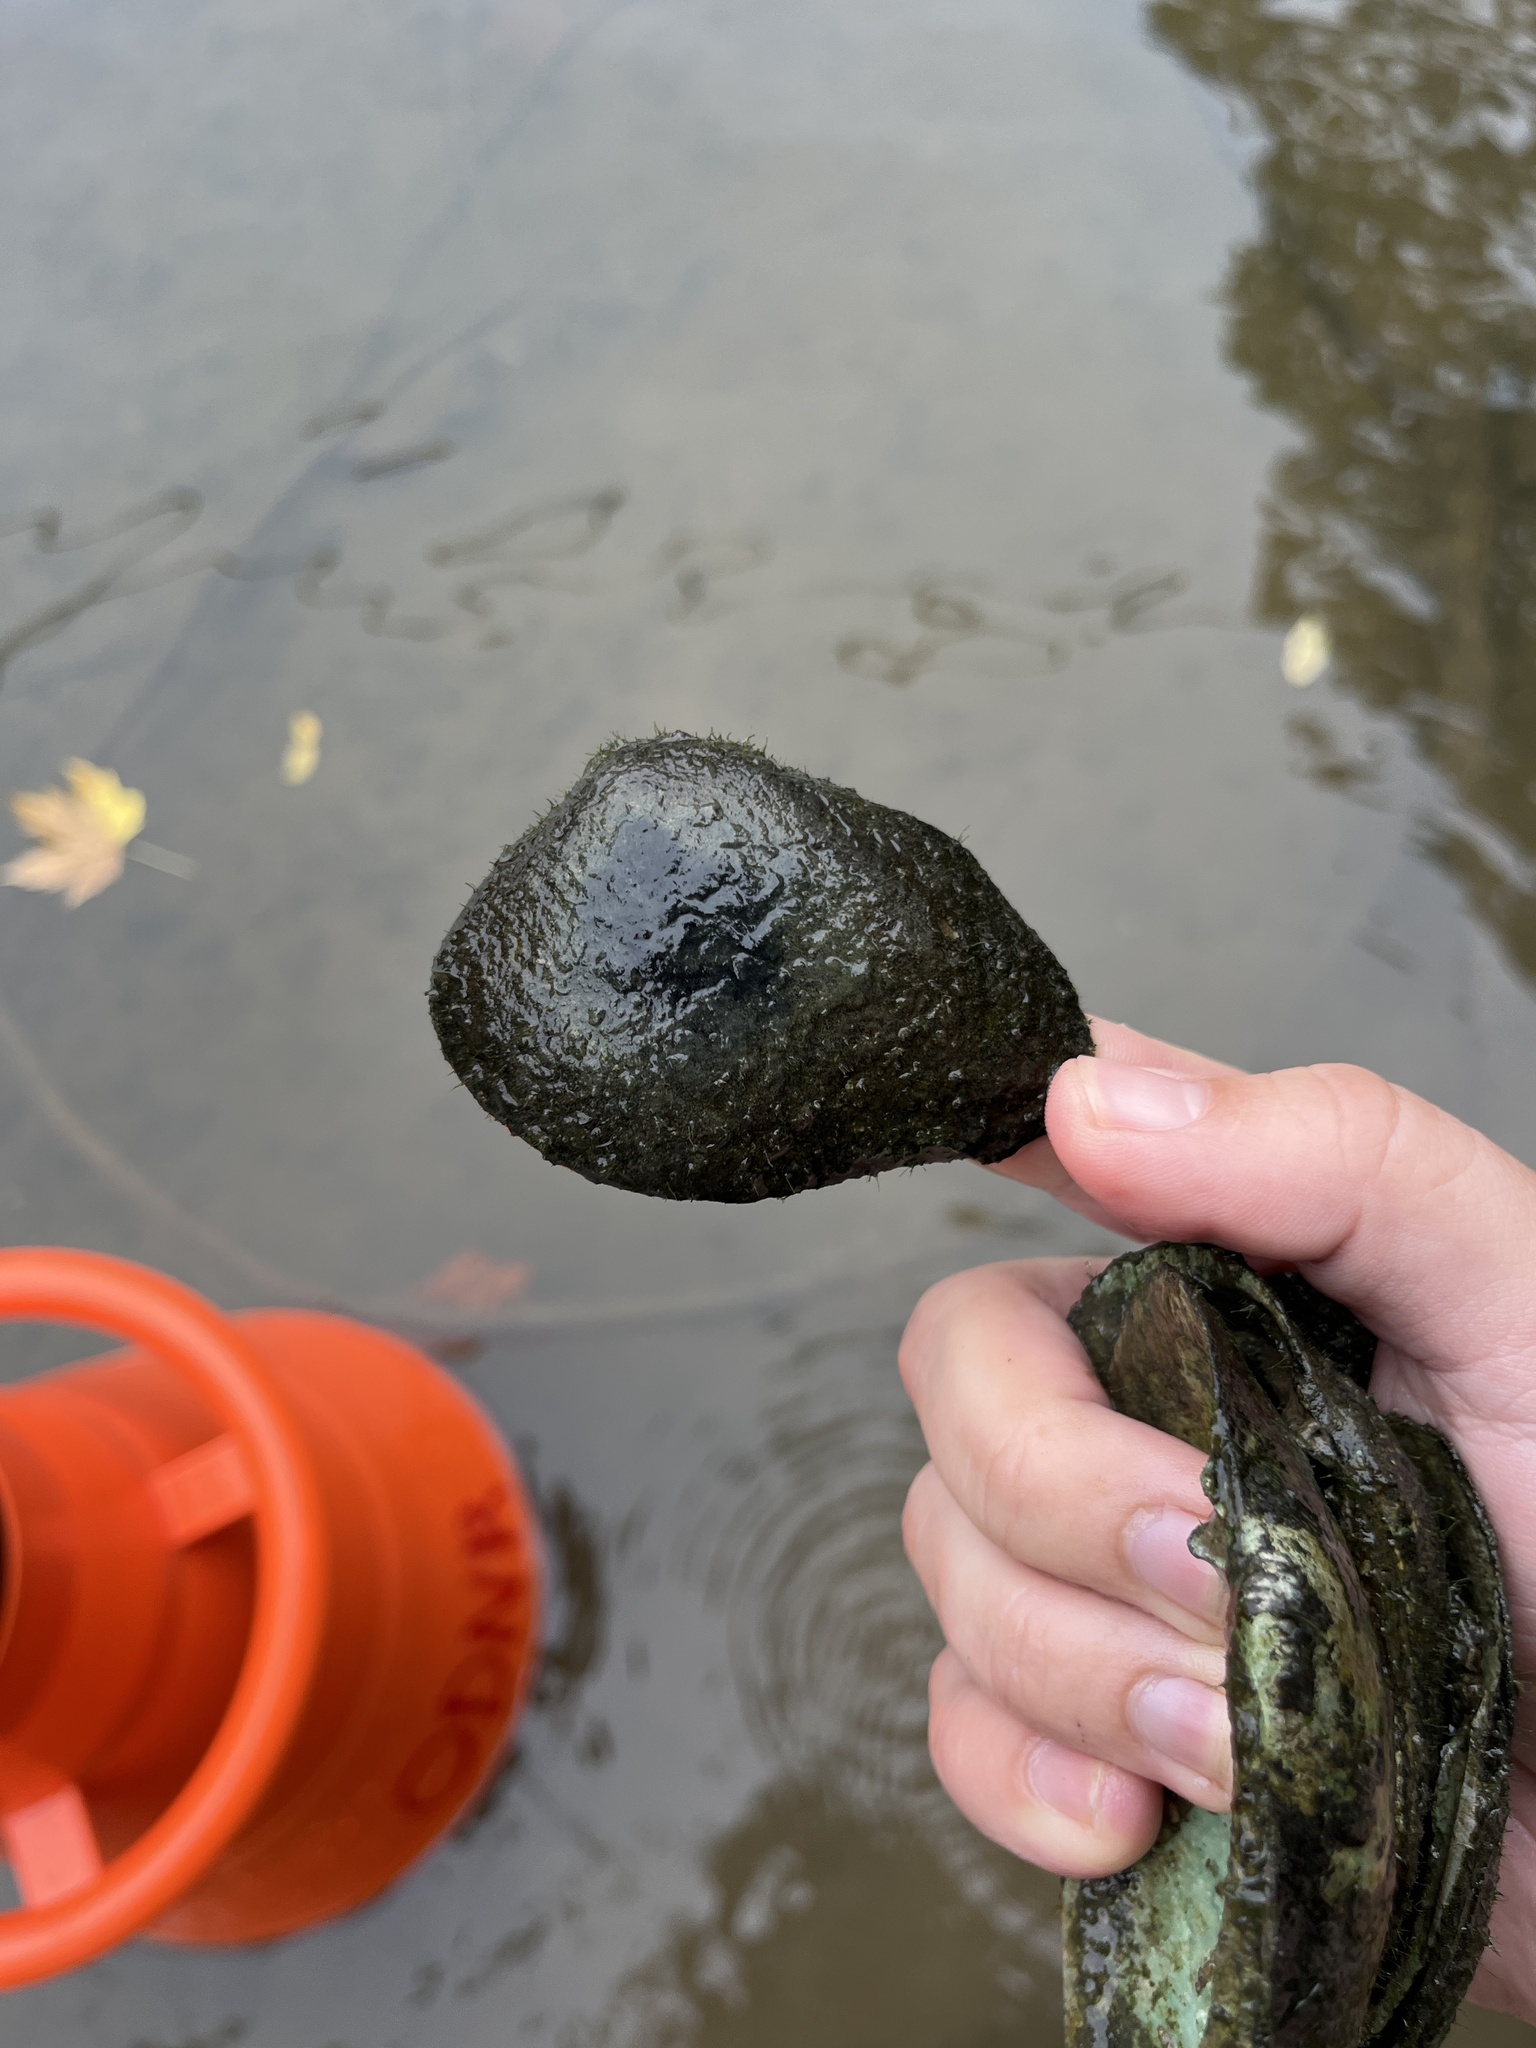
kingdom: Animalia
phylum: Mollusca
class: Bivalvia
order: Unionida
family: Unionidae
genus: Fusconaia
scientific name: Fusconaia flava
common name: Wabash pigtoe
